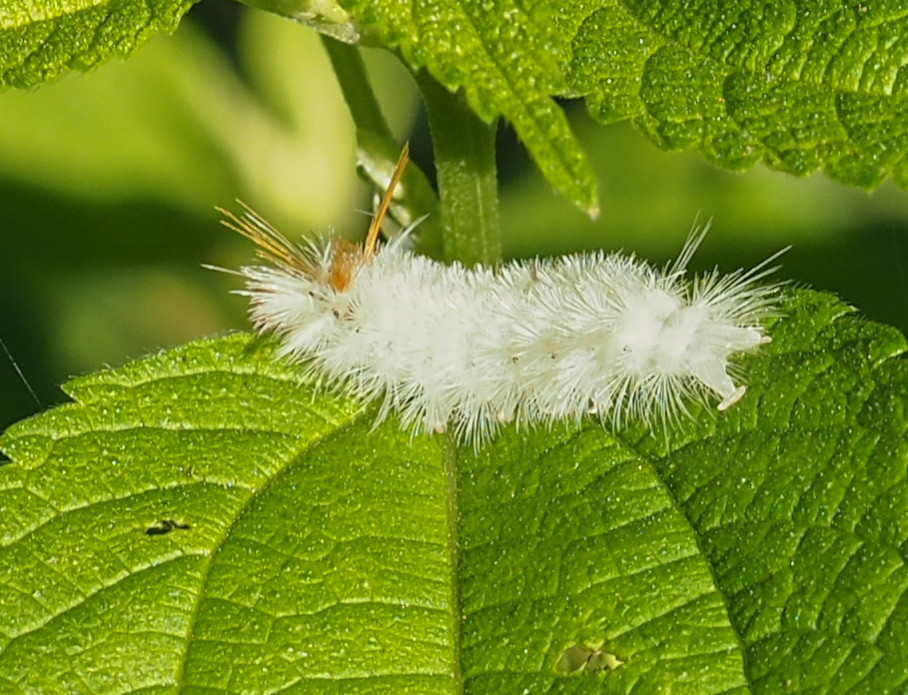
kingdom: Animalia
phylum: Arthropoda
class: Insecta
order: Lepidoptera
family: Erebidae
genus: Halysidota
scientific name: Halysidota harrisii
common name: Sycamore tussock moth
